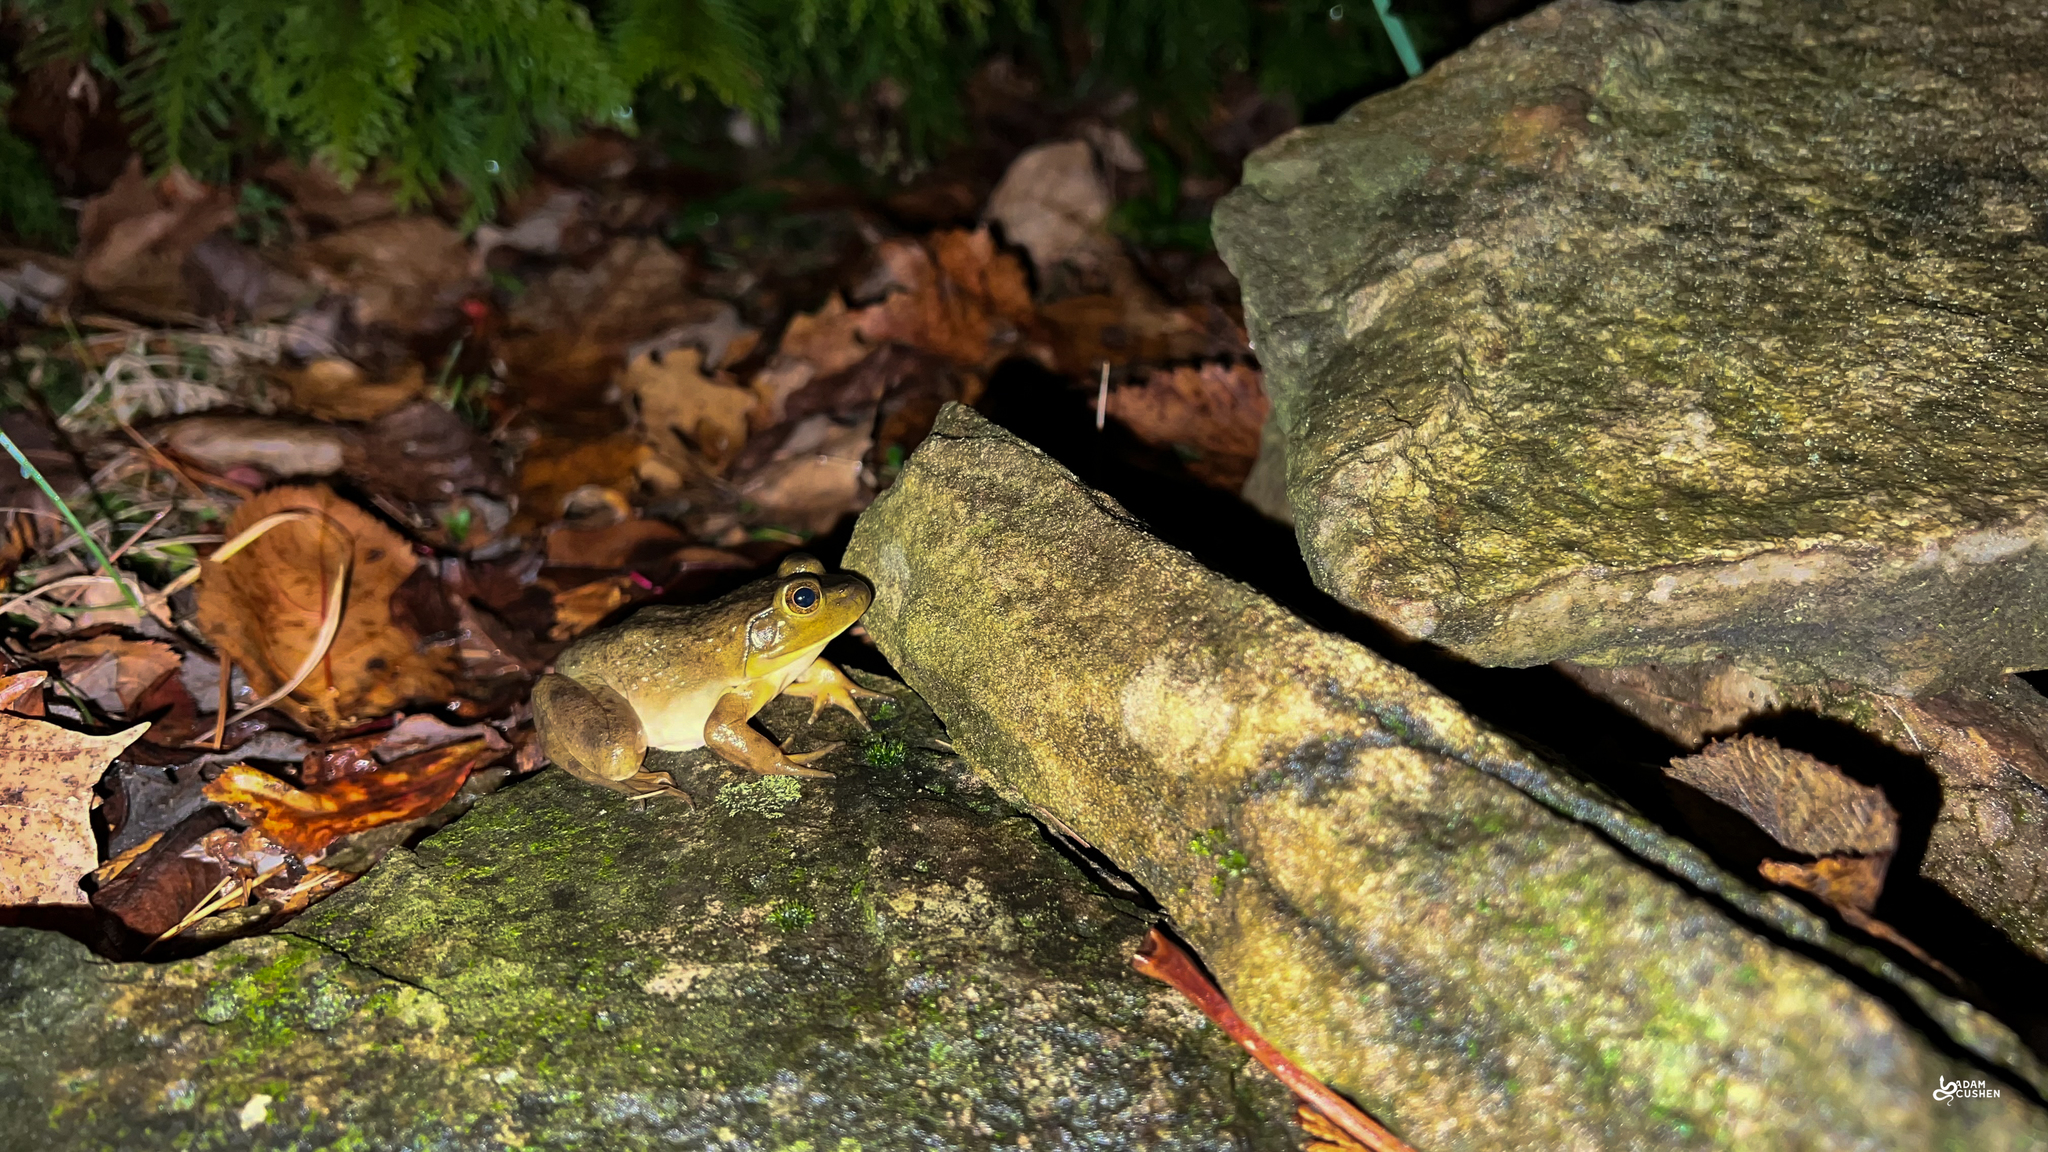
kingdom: Animalia
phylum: Chordata
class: Amphibia
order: Anura
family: Ranidae
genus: Lithobates
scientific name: Lithobates catesbeianus
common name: American bullfrog
